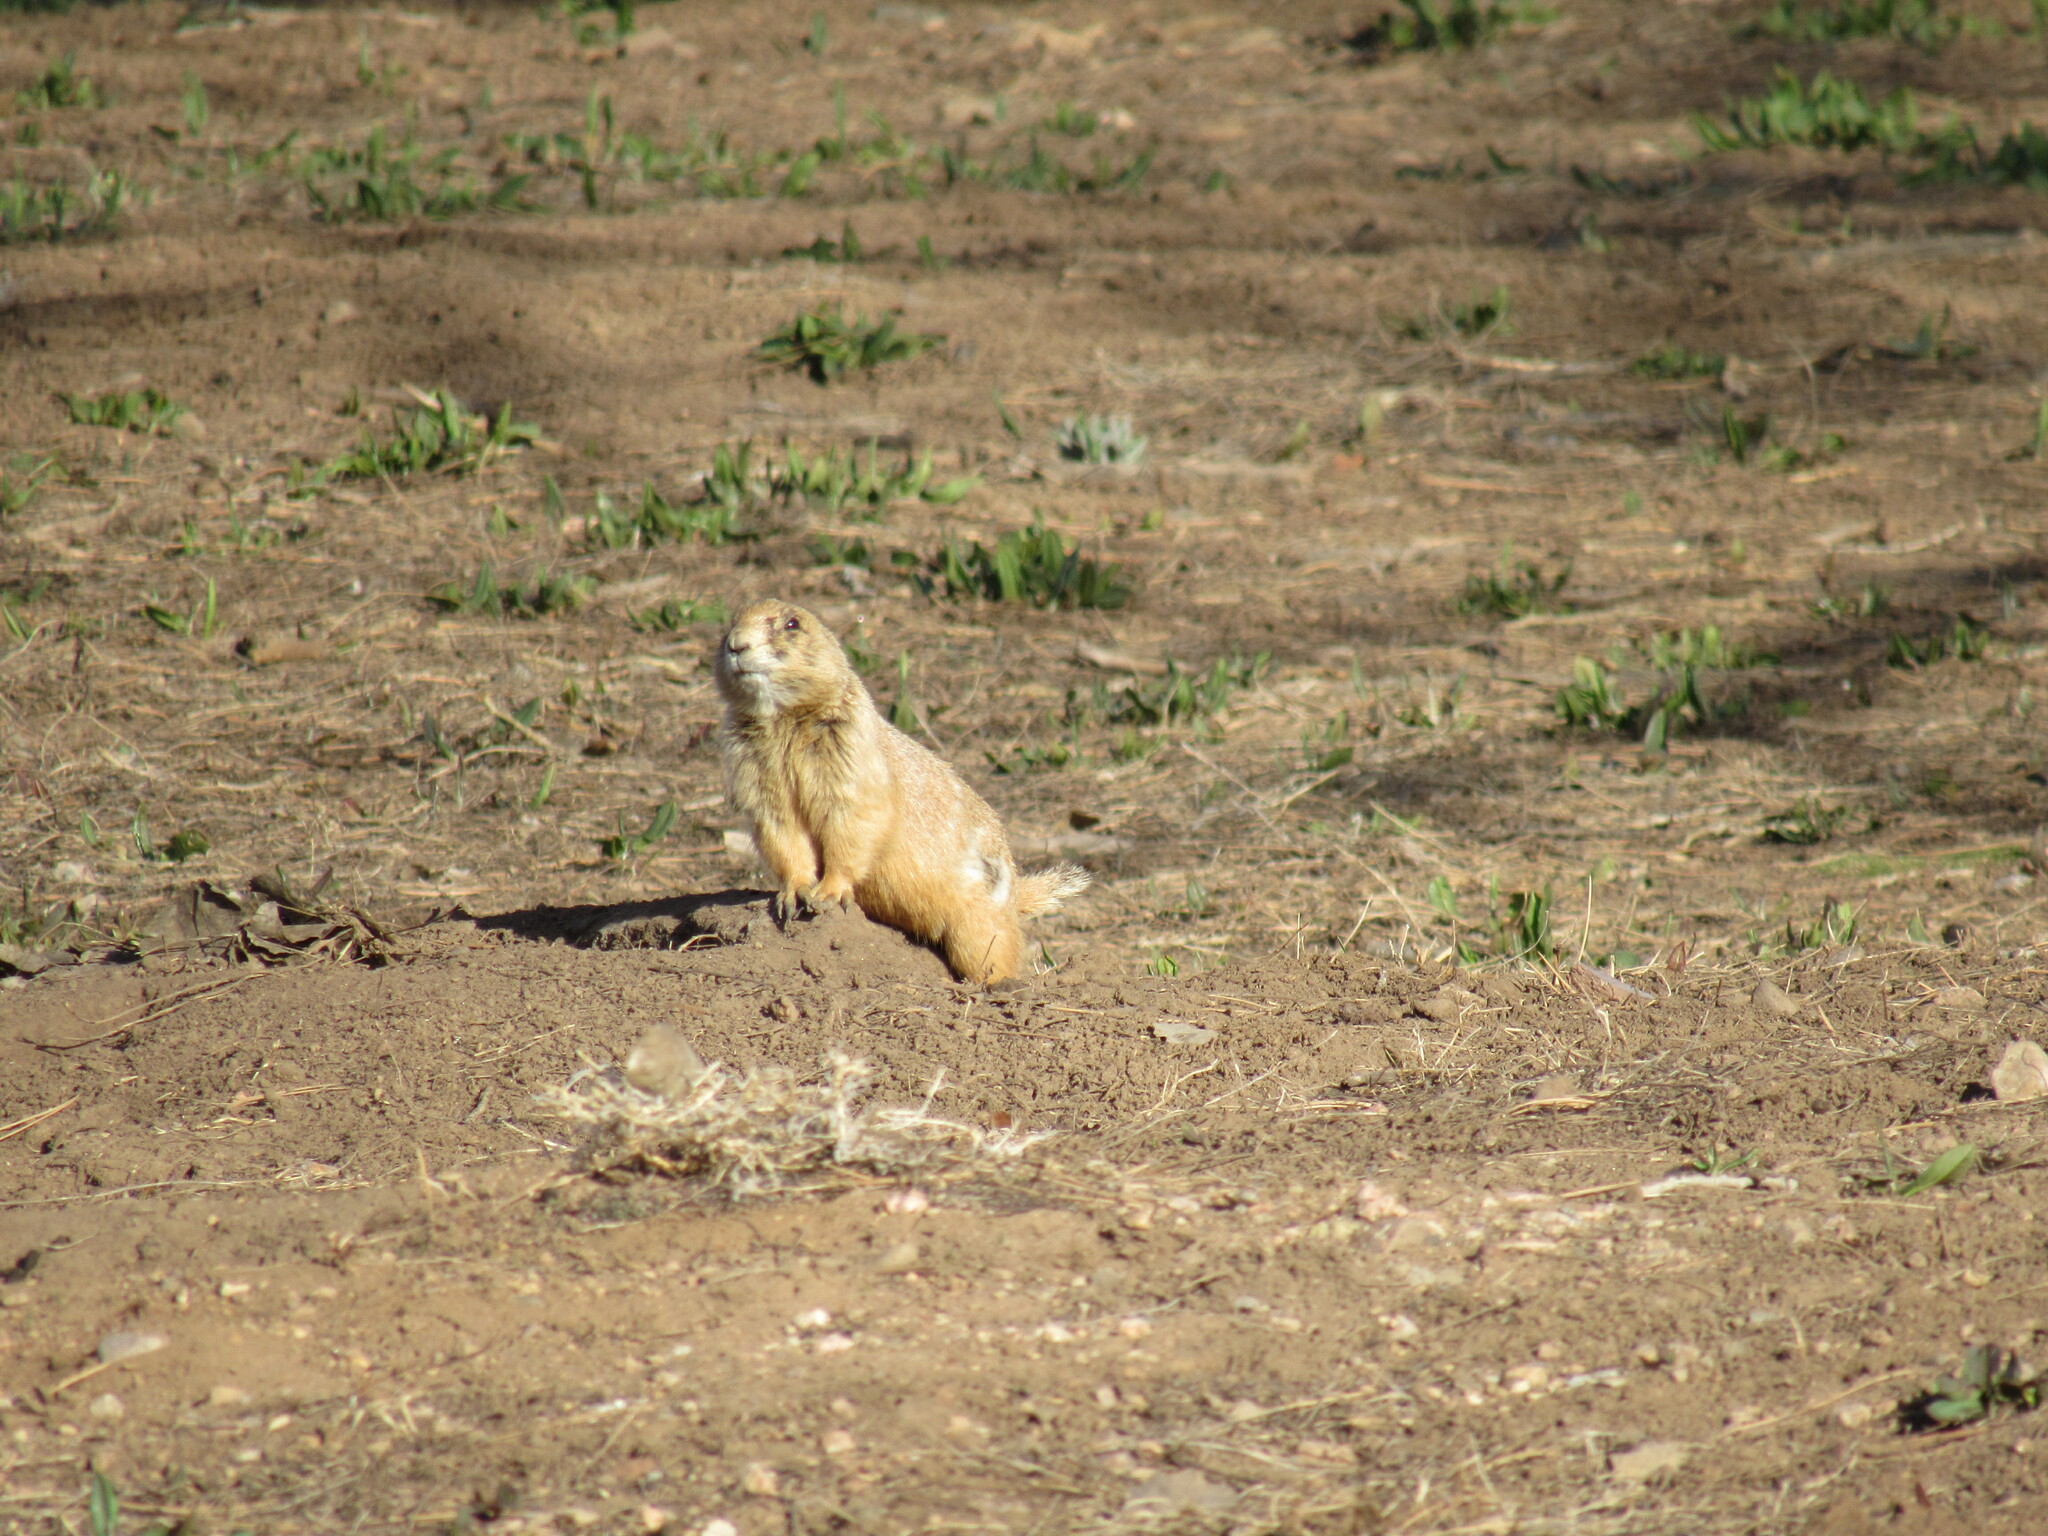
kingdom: Animalia
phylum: Chordata
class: Mammalia
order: Rodentia
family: Sciuridae
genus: Cynomys
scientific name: Cynomys ludovicianus
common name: Black-tailed prairie dog
